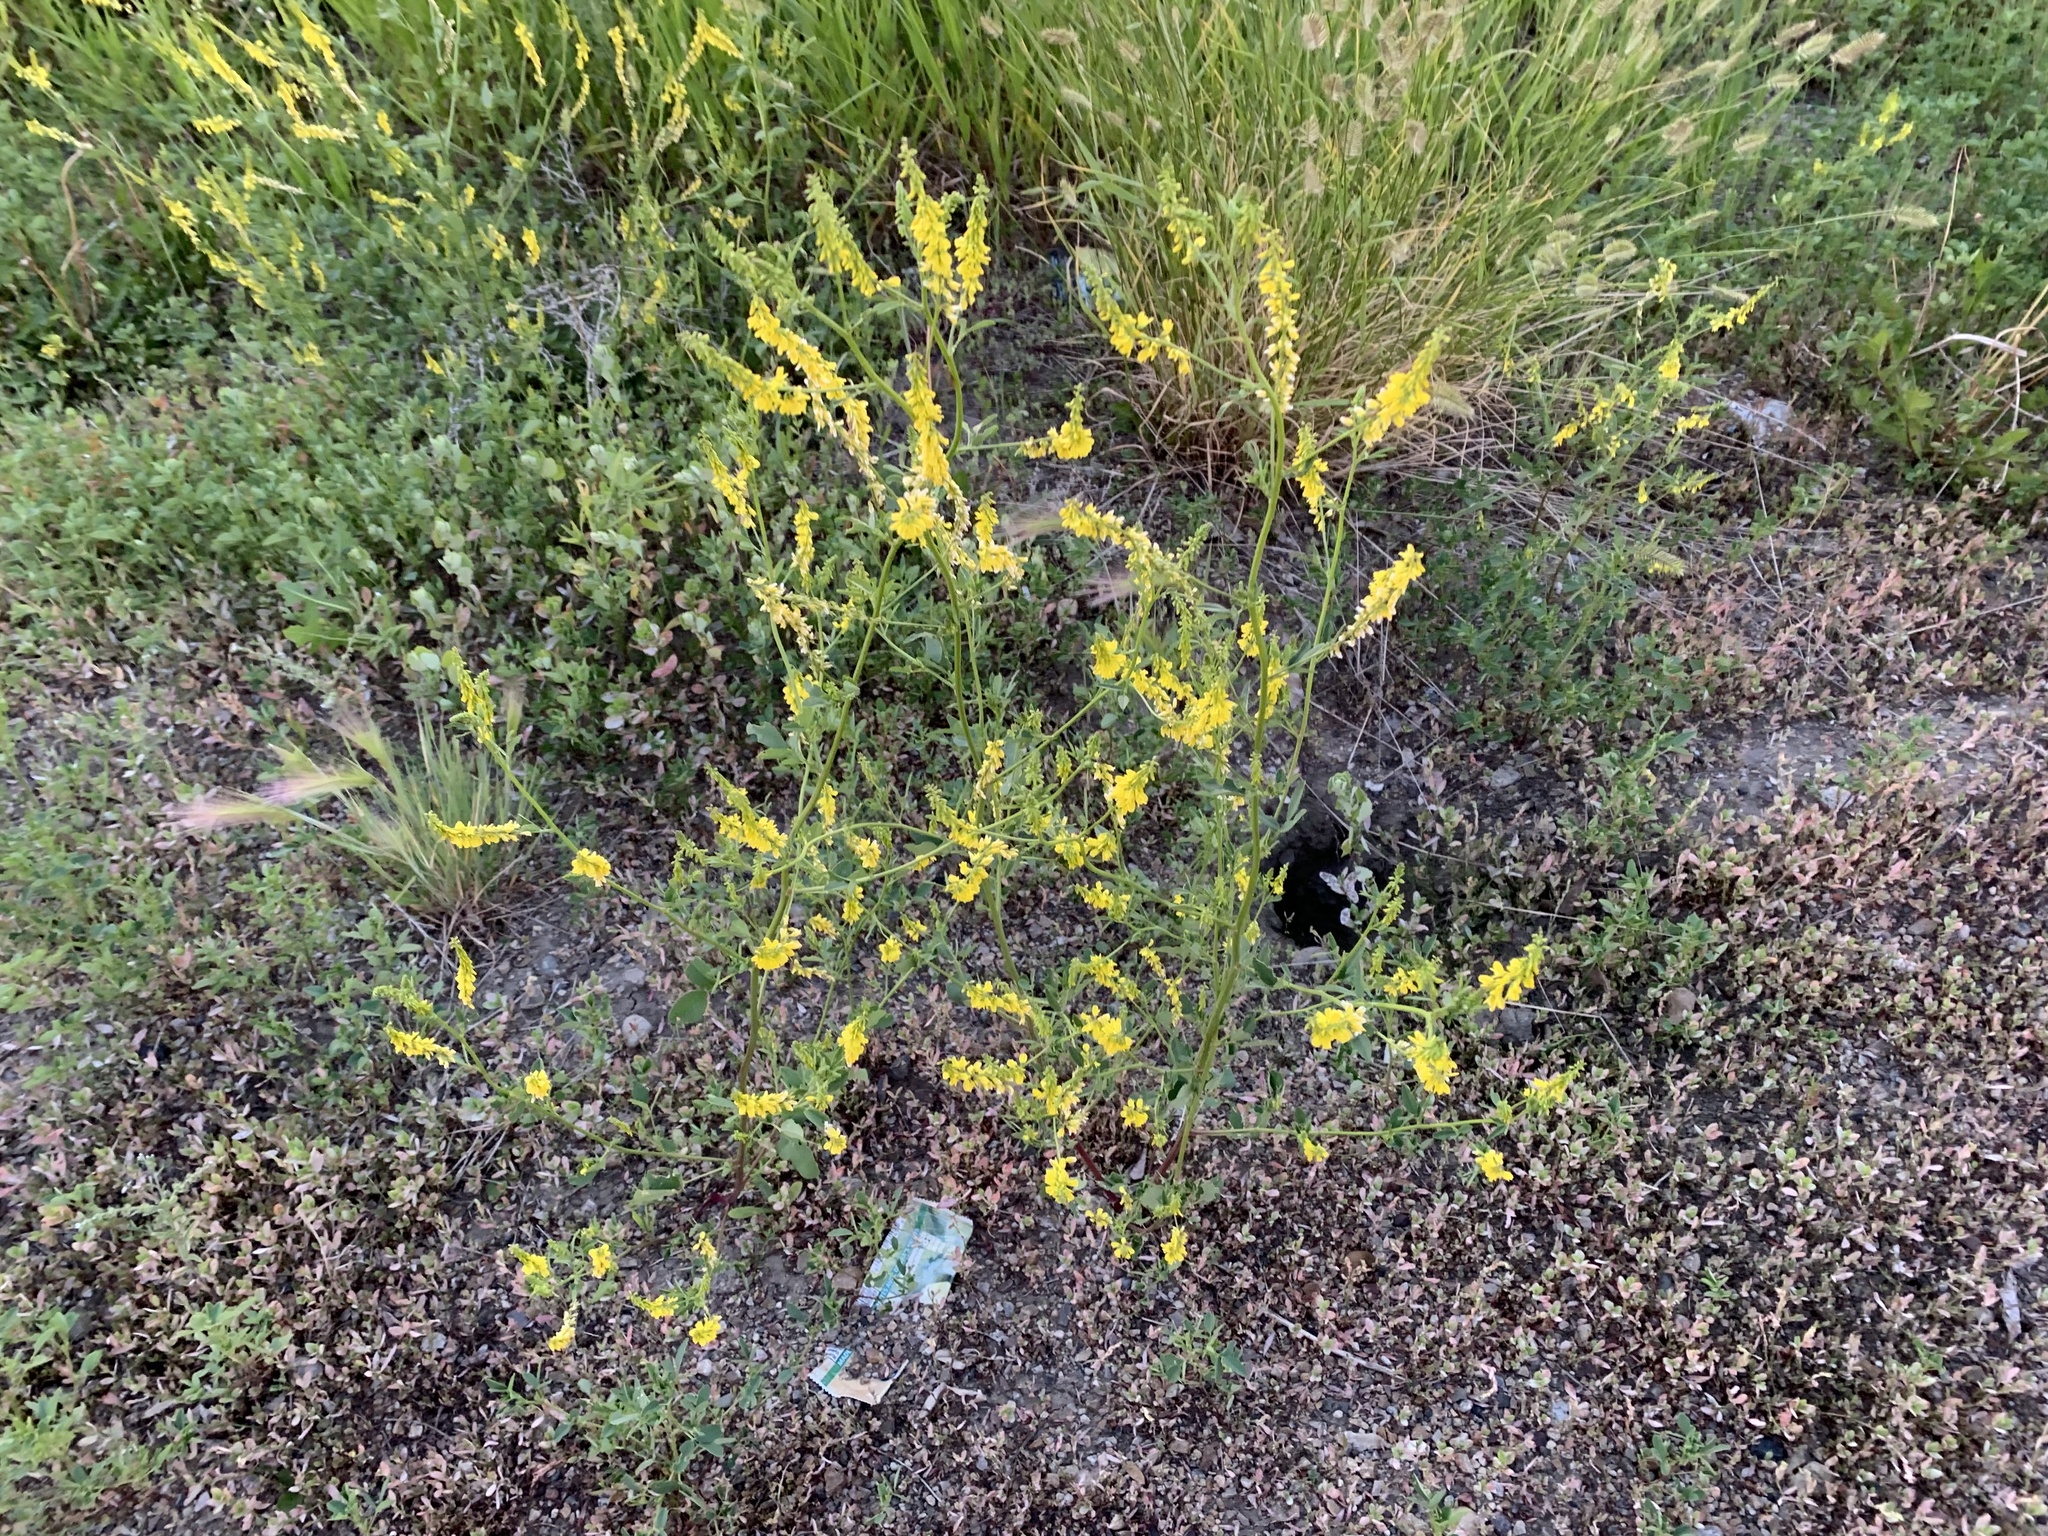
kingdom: Plantae
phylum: Tracheophyta
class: Magnoliopsida
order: Fabales
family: Fabaceae
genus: Melilotus
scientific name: Melilotus officinalis
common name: Sweetclover
